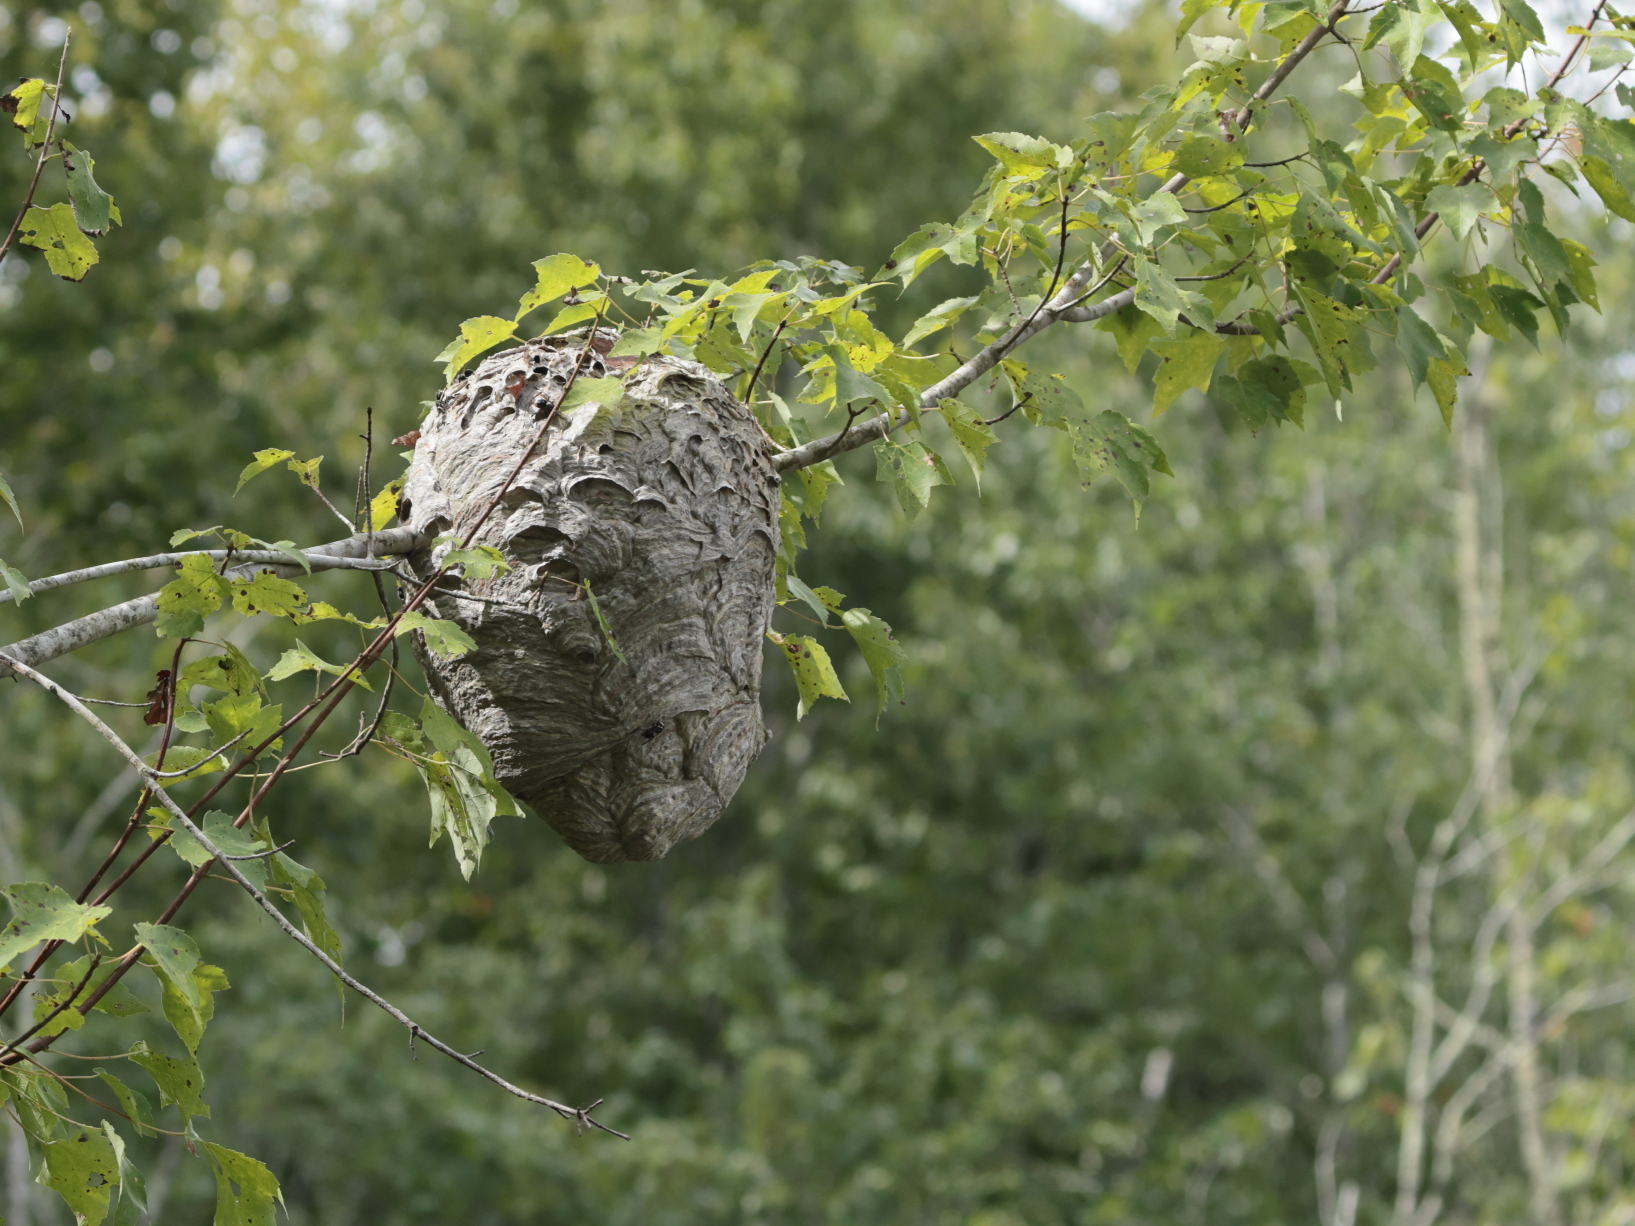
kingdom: Animalia
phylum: Arthropoda
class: Insecta
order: Hymenoptera
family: Vespidae
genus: Dolichovespula
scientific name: Dolichovespula maculata
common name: Bald-faced hornet
